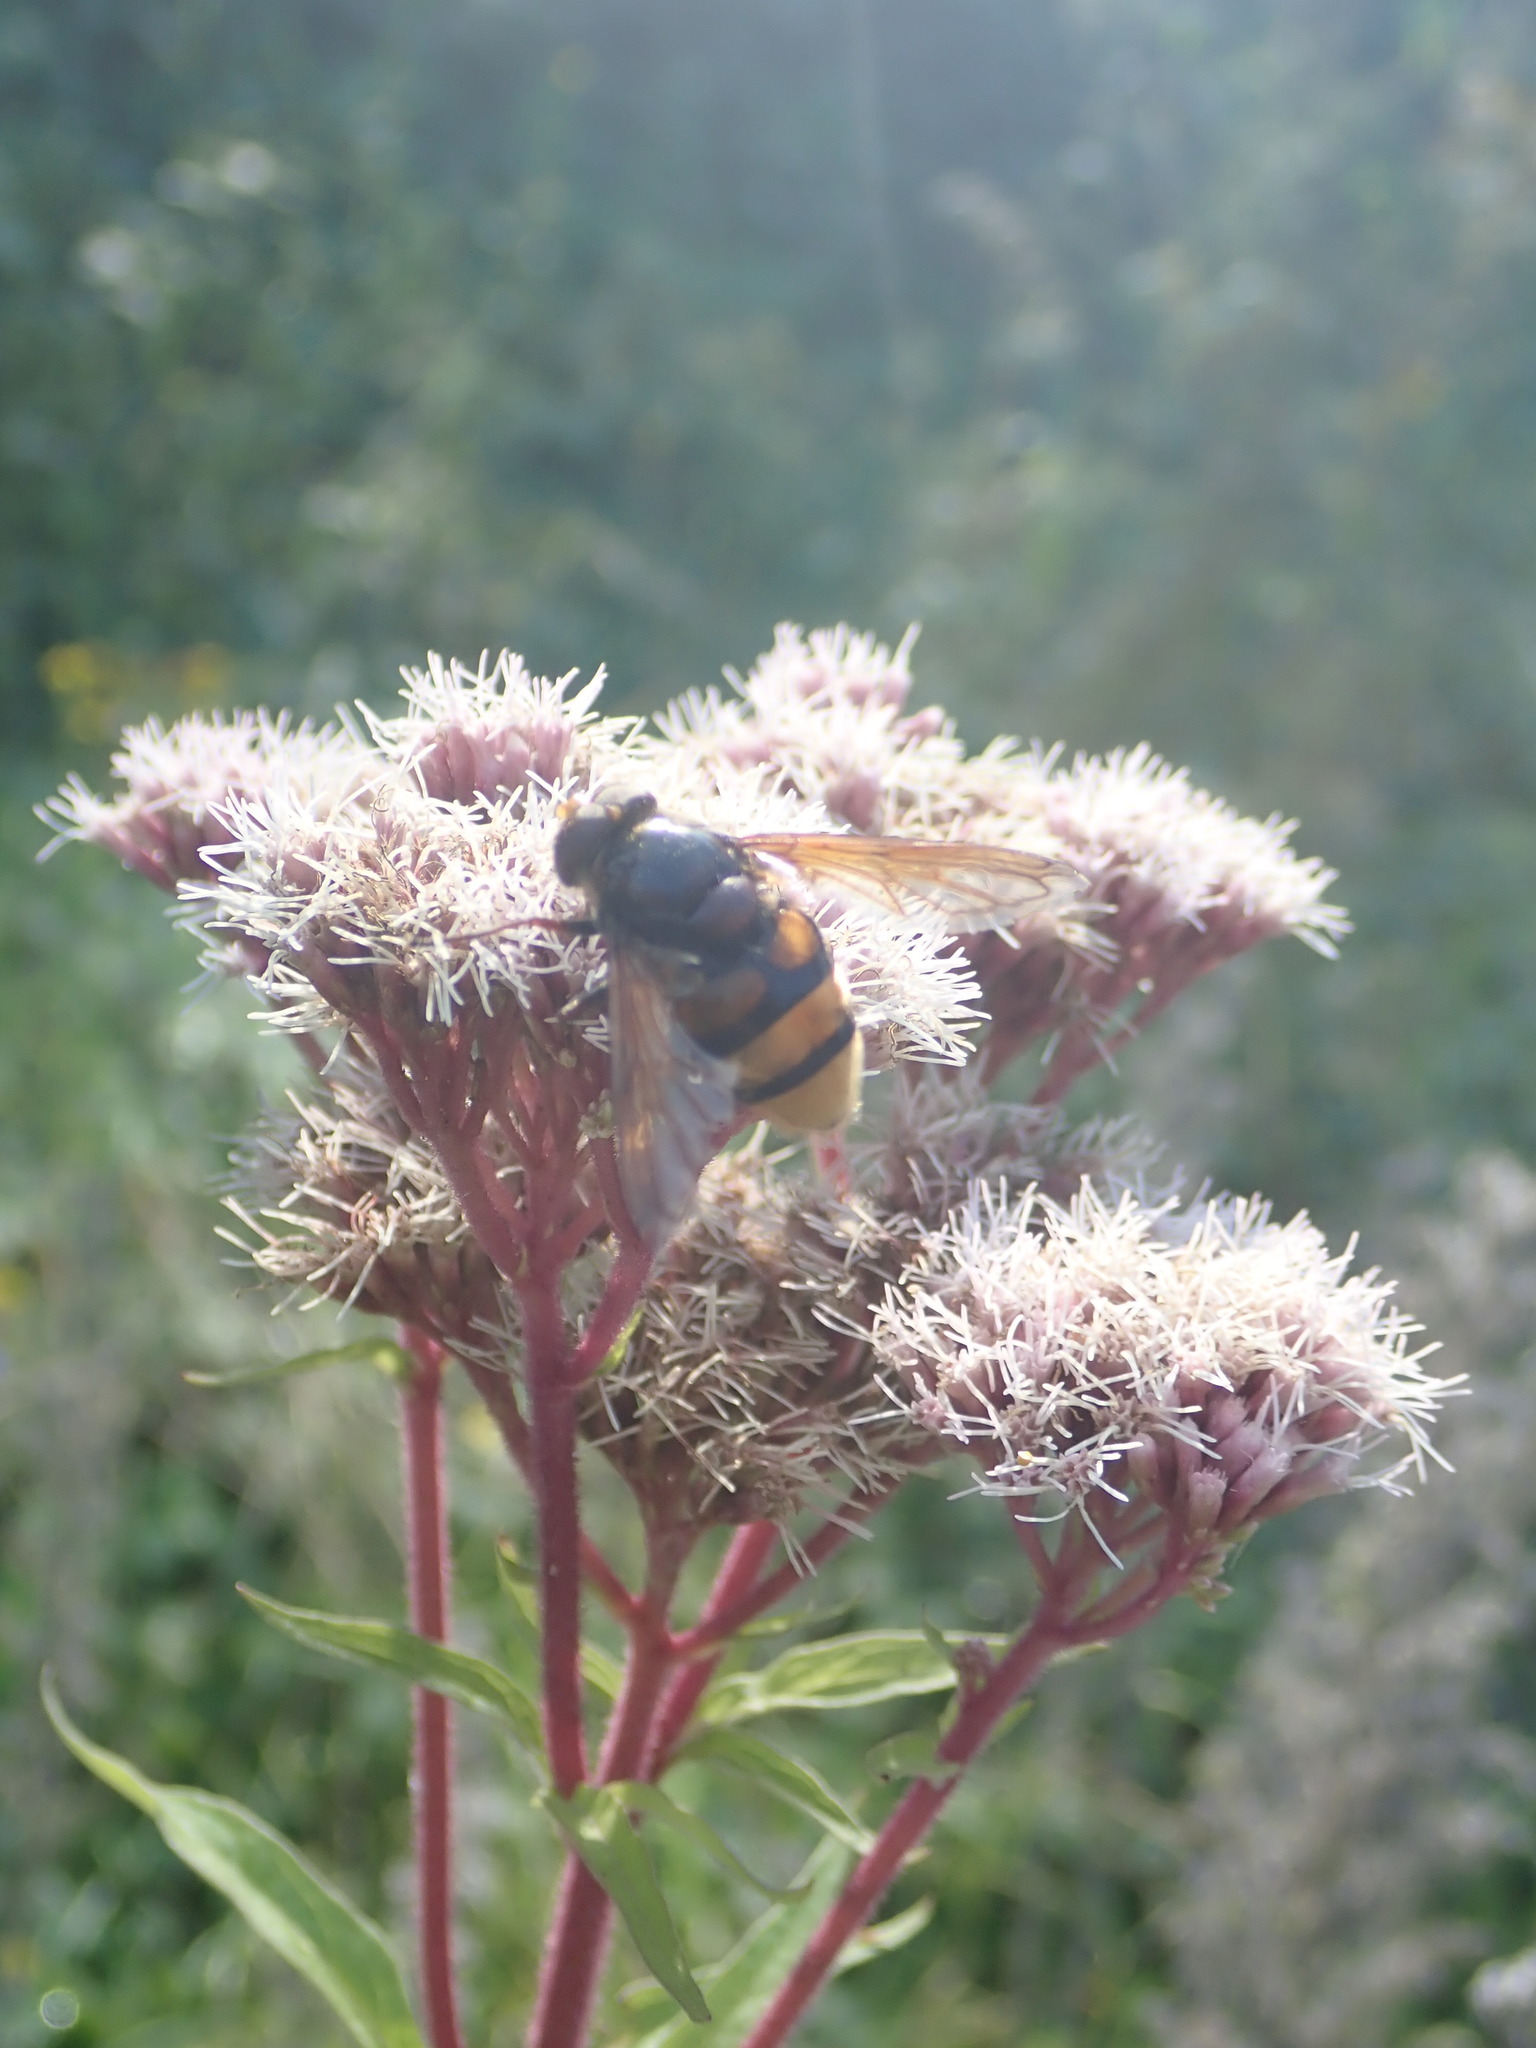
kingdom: Animalia
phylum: Arthropoda
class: Insecta
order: Diptera
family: Syrphidae
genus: Volucella
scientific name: Volucella zonaria
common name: Hornet hoverfly
